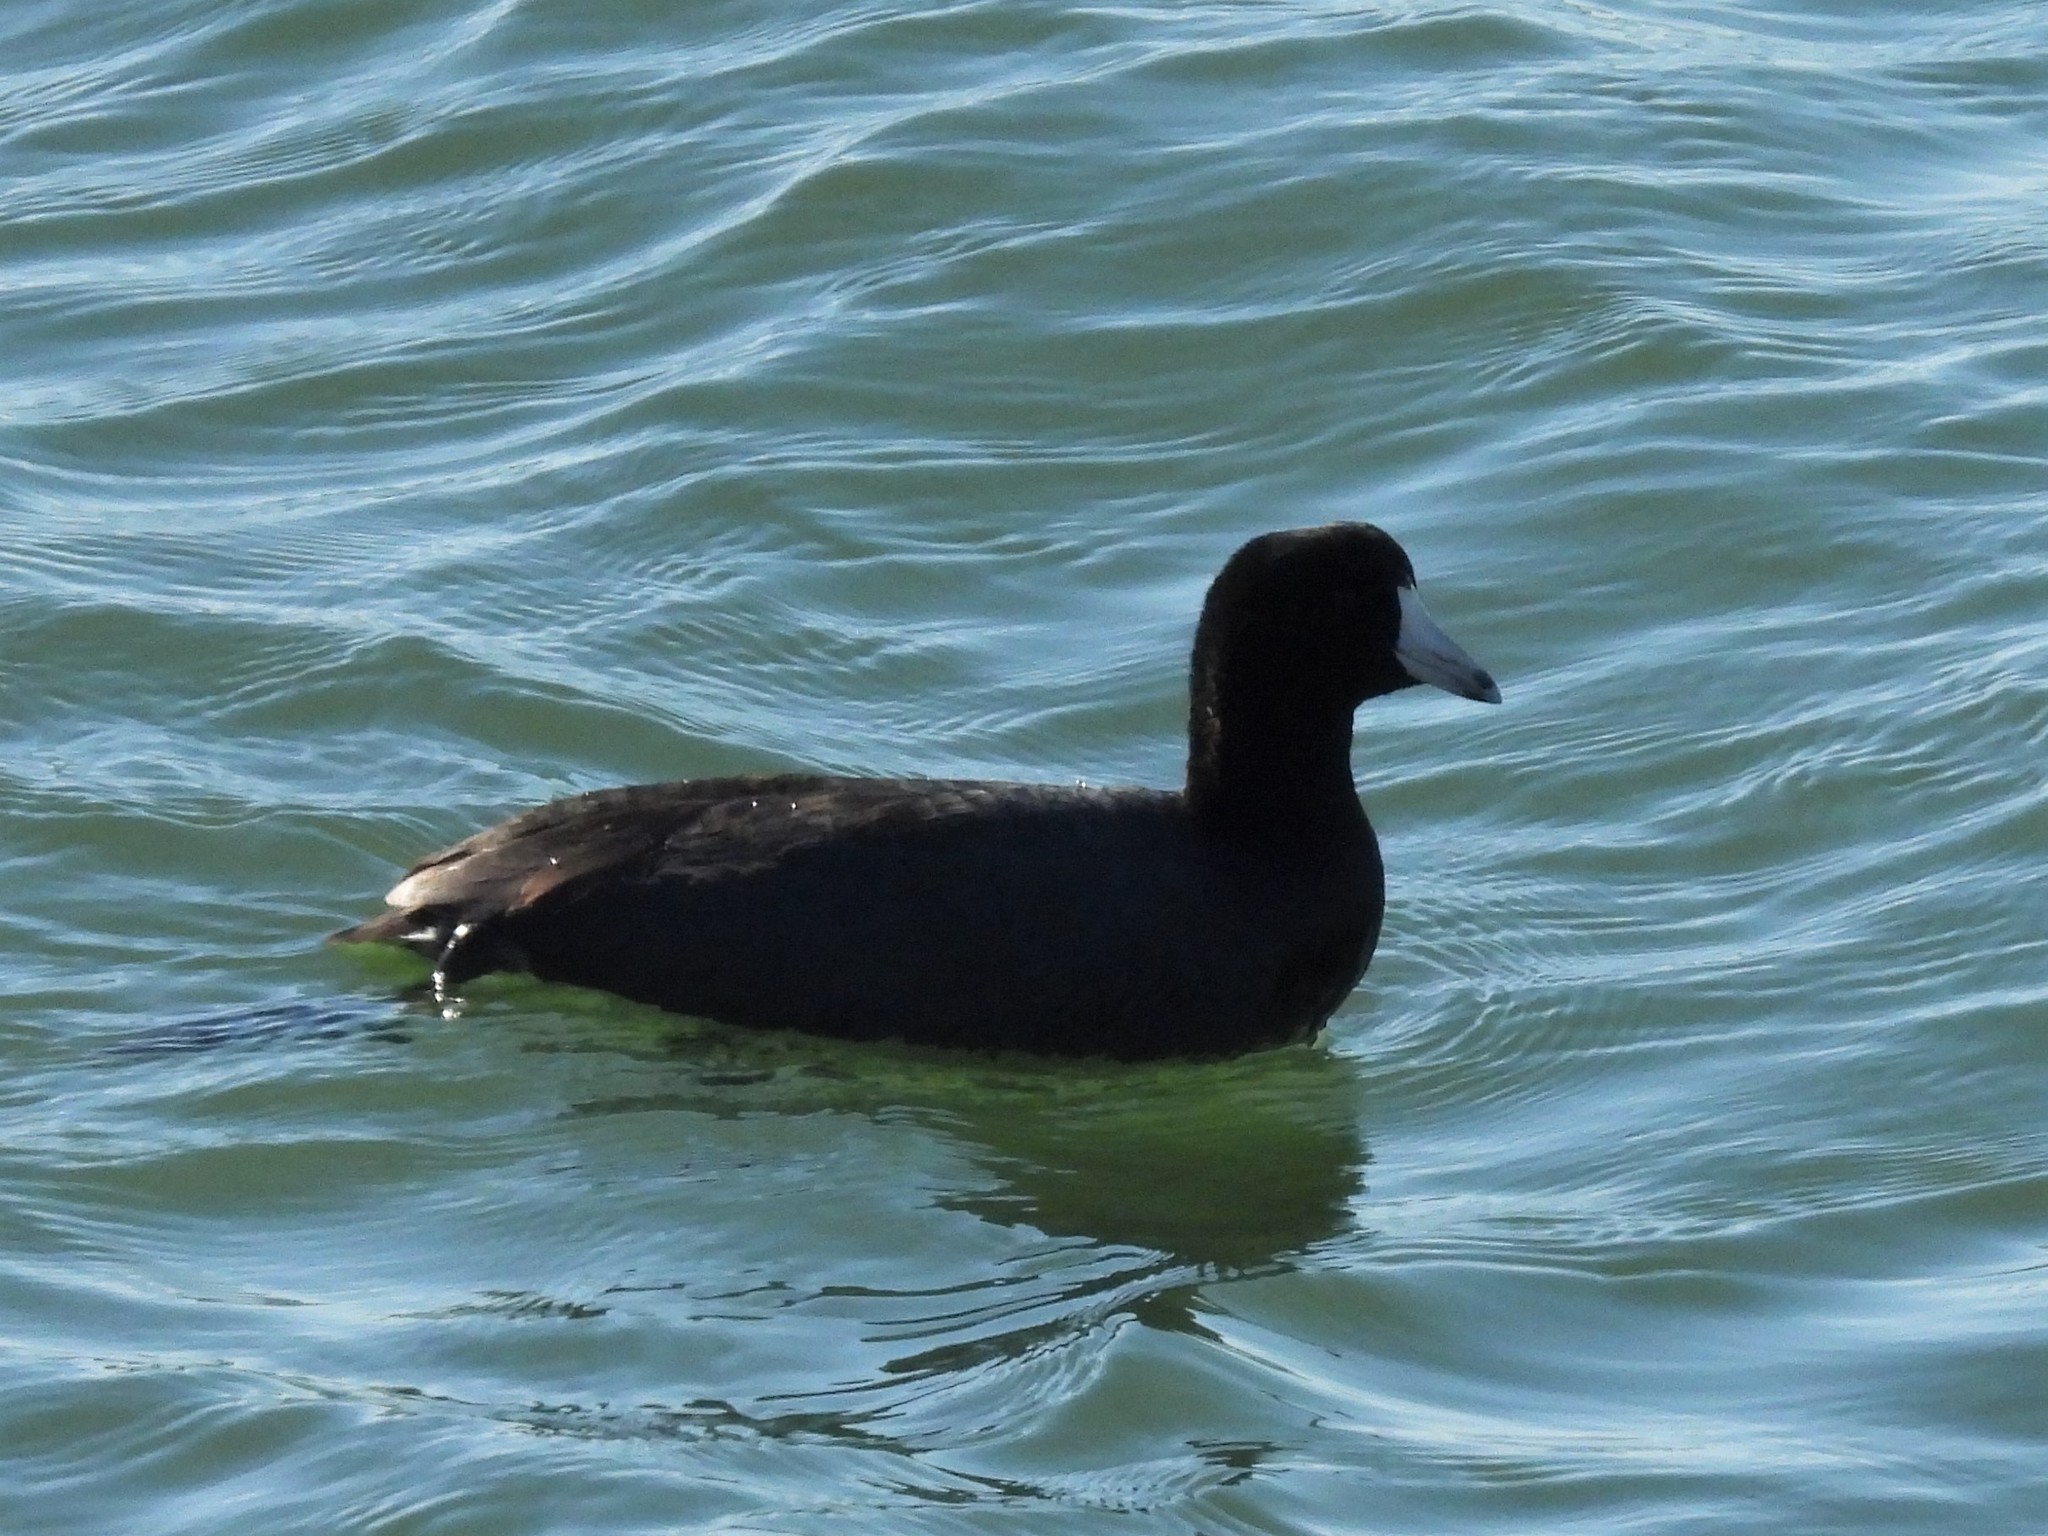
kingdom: Animalia
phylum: Chordata
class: Aves
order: Gruiformes
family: Rallidae
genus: Fulica
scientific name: Fulica americana
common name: American coot
